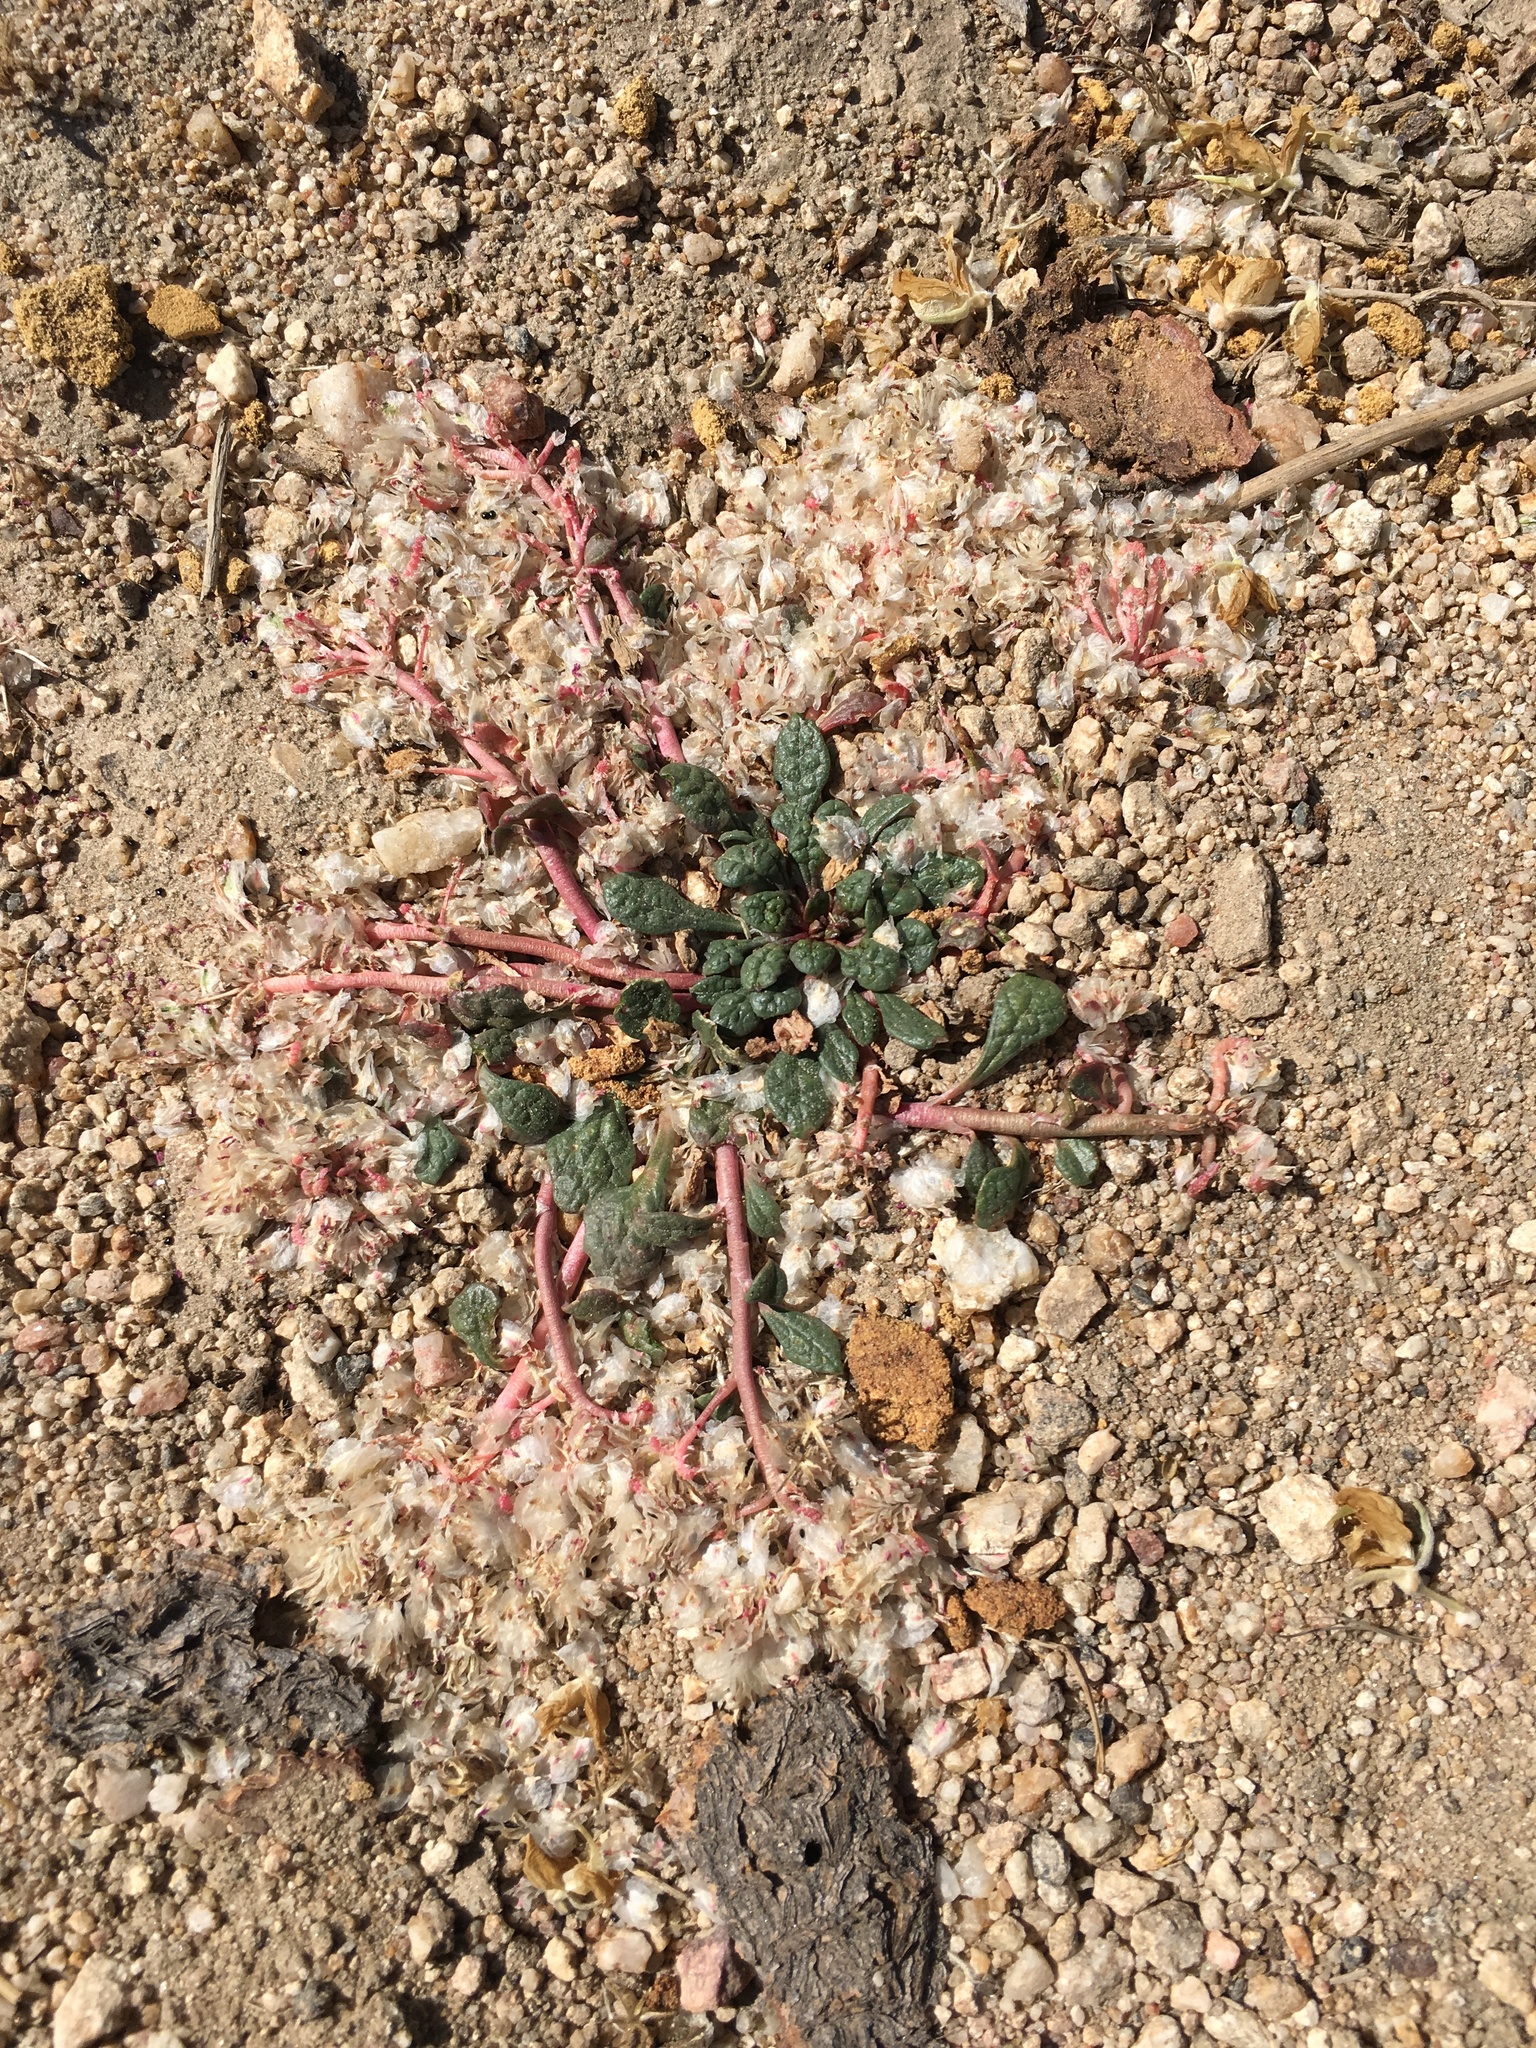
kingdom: Plantae
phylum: Tracheophyta
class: Magnoliopsida
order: Caryophyllales
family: Montiaceae
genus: Calyptridium
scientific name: Calyptridium monospermum
